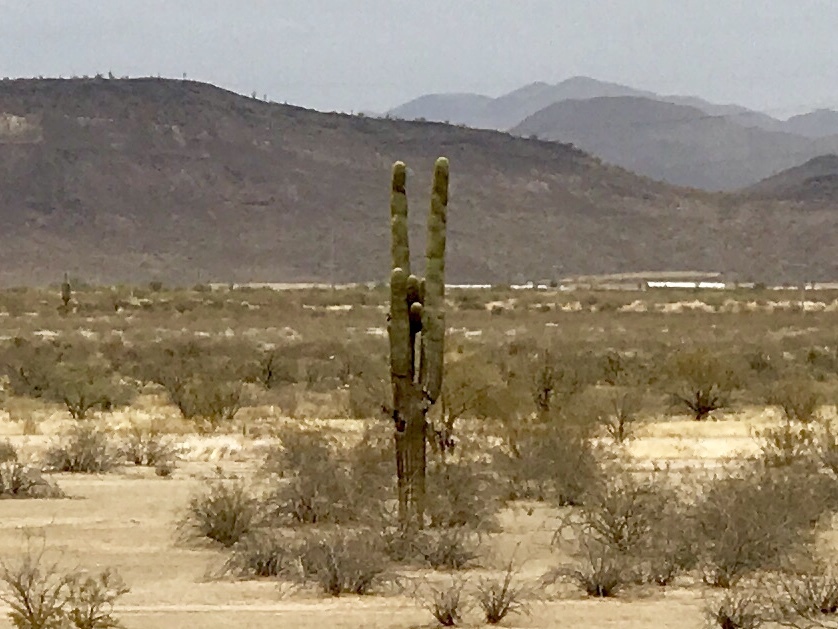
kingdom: Plantae
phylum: Tracheophyta
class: Magnoliopsida
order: Caryophyllales
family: Cactaceae
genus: Carnegiea
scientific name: Carnegiea gigantea
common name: Saguaro
